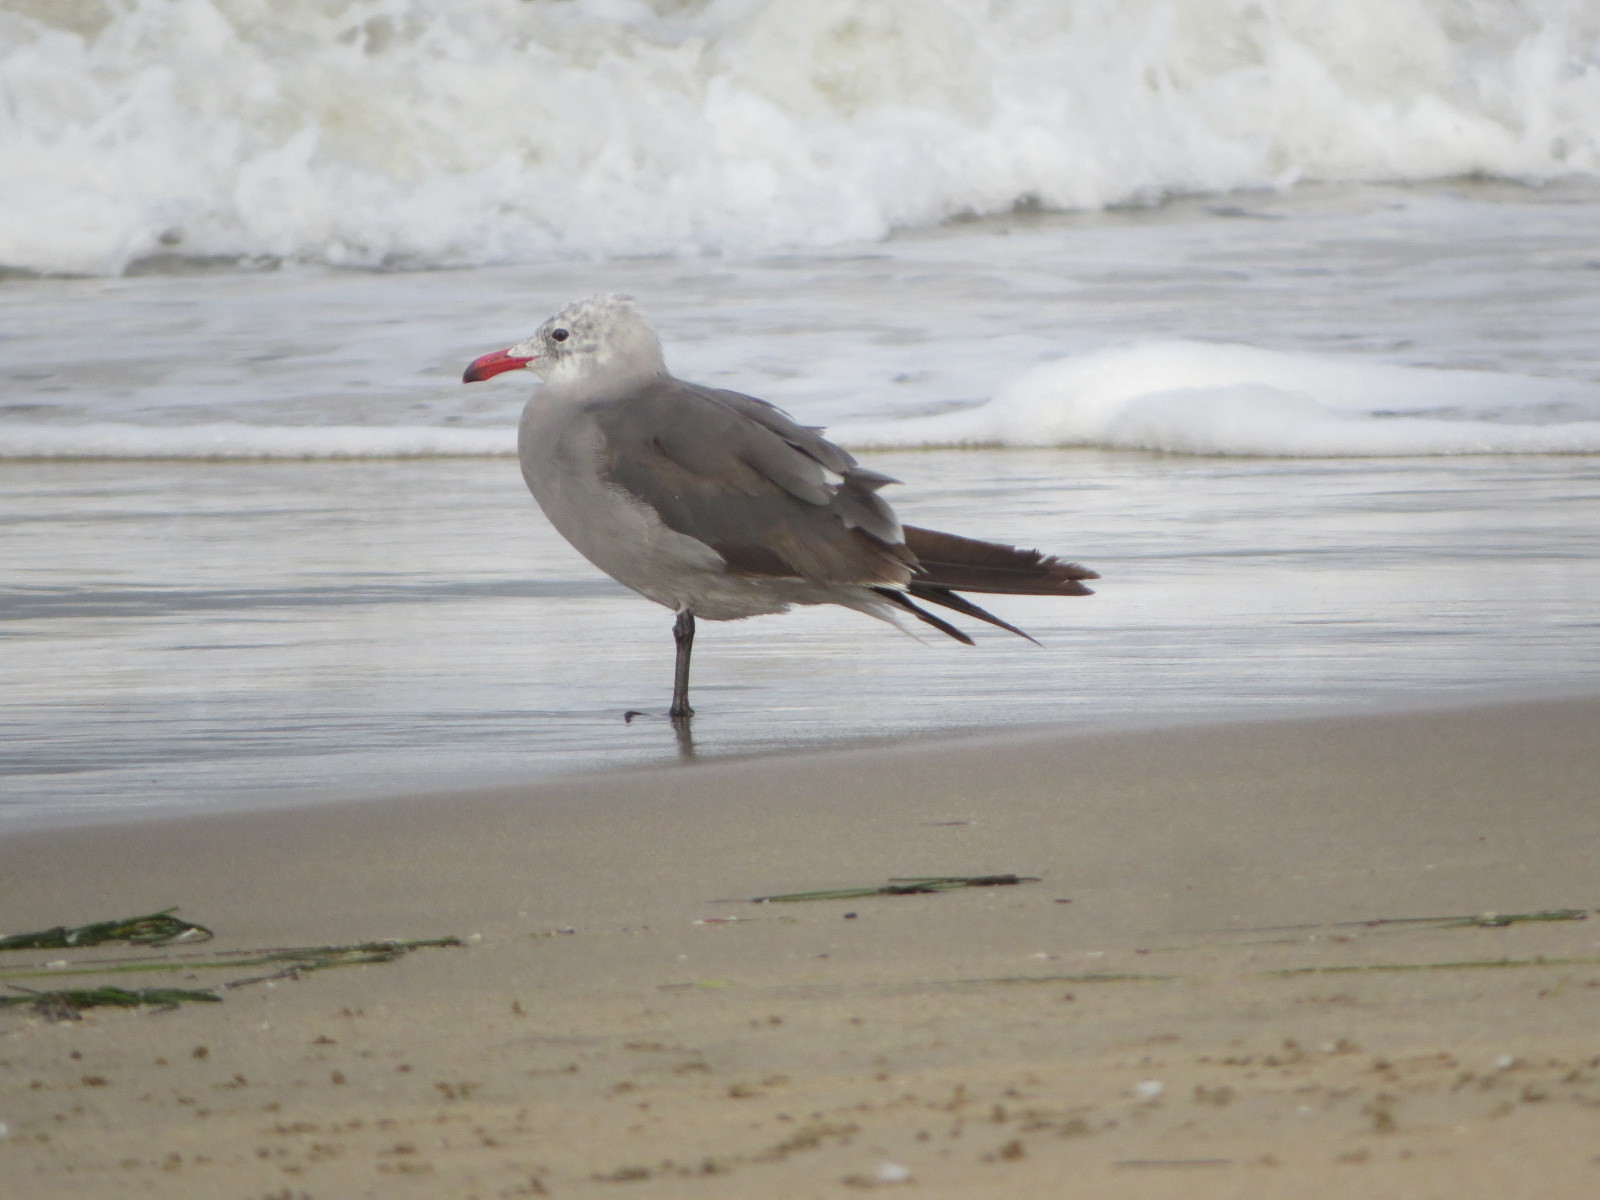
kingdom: Animalia
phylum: Chordata
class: Aves
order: Charadriiformes
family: Laridae
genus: Larus
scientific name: Larus heermanni
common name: Heermann's gull
